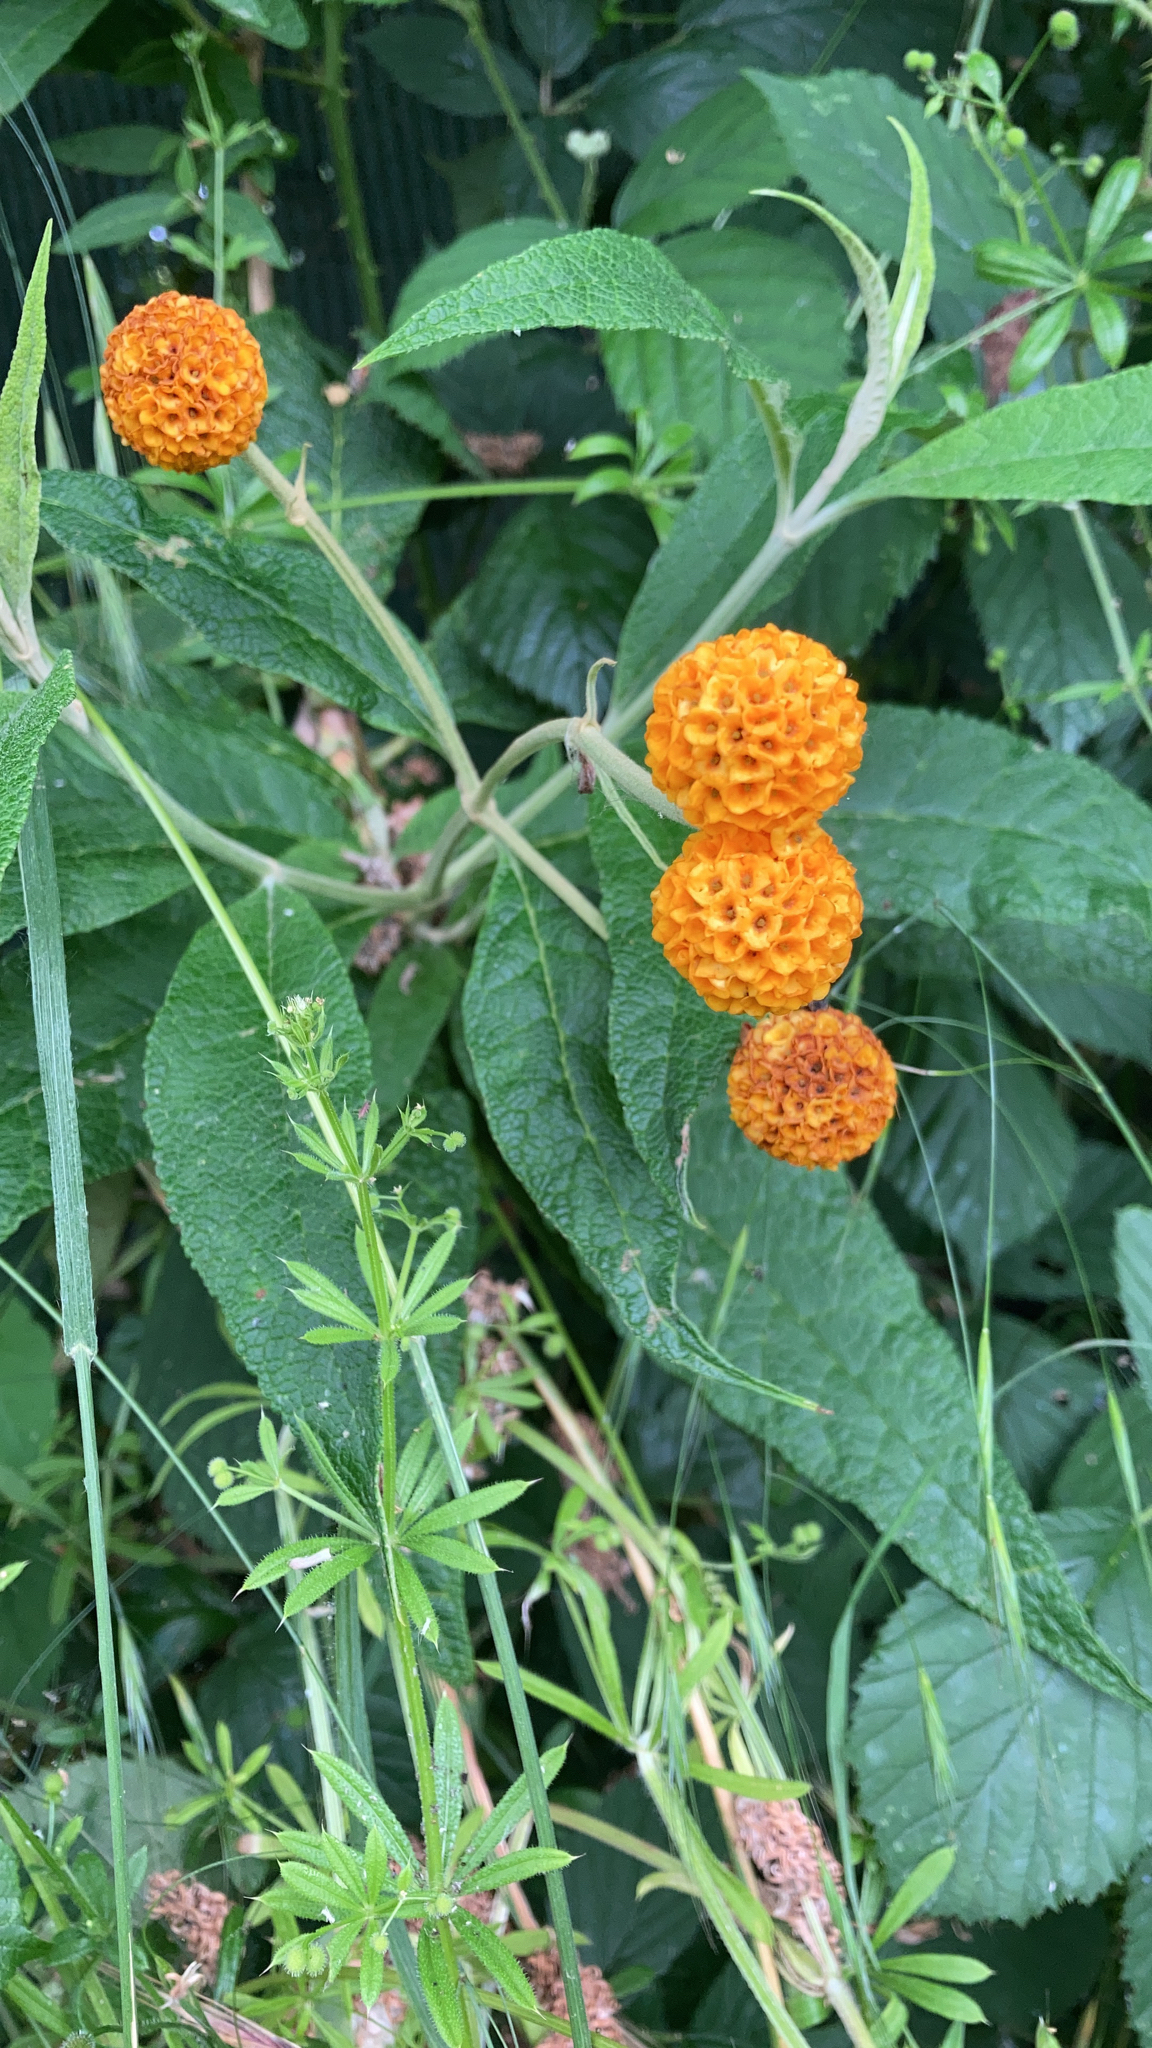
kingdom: Plantae
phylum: Tracheophyta
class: Magnoliopsida
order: Lamiales
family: Scrophulariaceae
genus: Buddleja
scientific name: Buddleja globosa
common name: Orange-ball-tree
